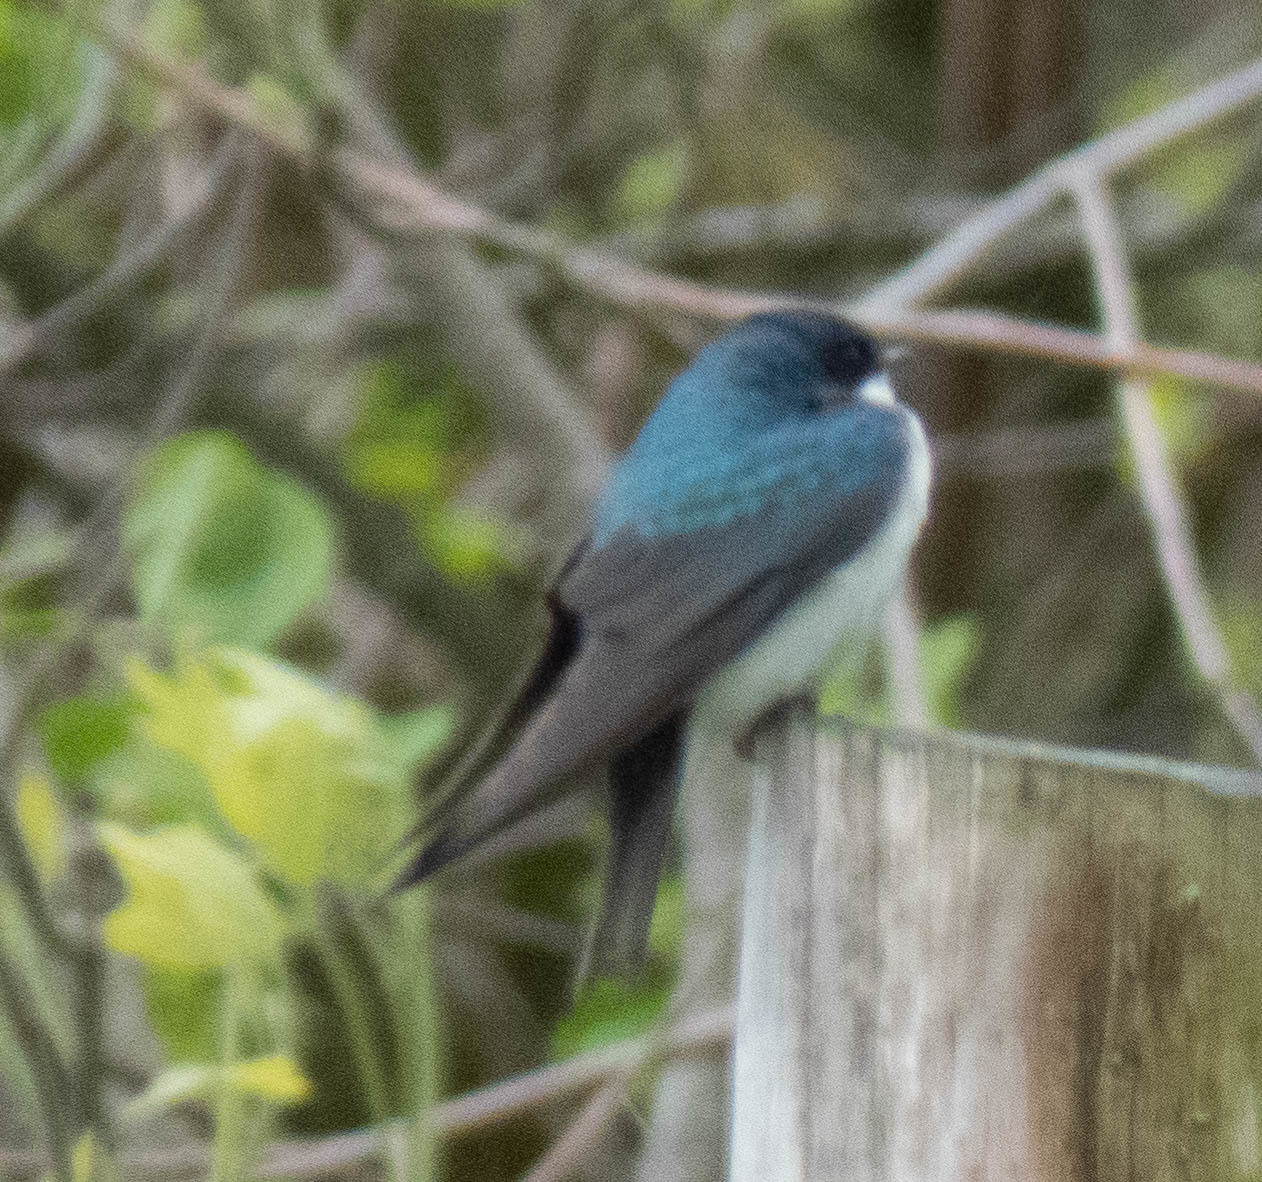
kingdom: Animalia
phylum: Chordata
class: Aves
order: Passeriformes
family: Hirundinidae
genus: Tachycineta
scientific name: Tachycineta bicolor
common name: Tree swallow
